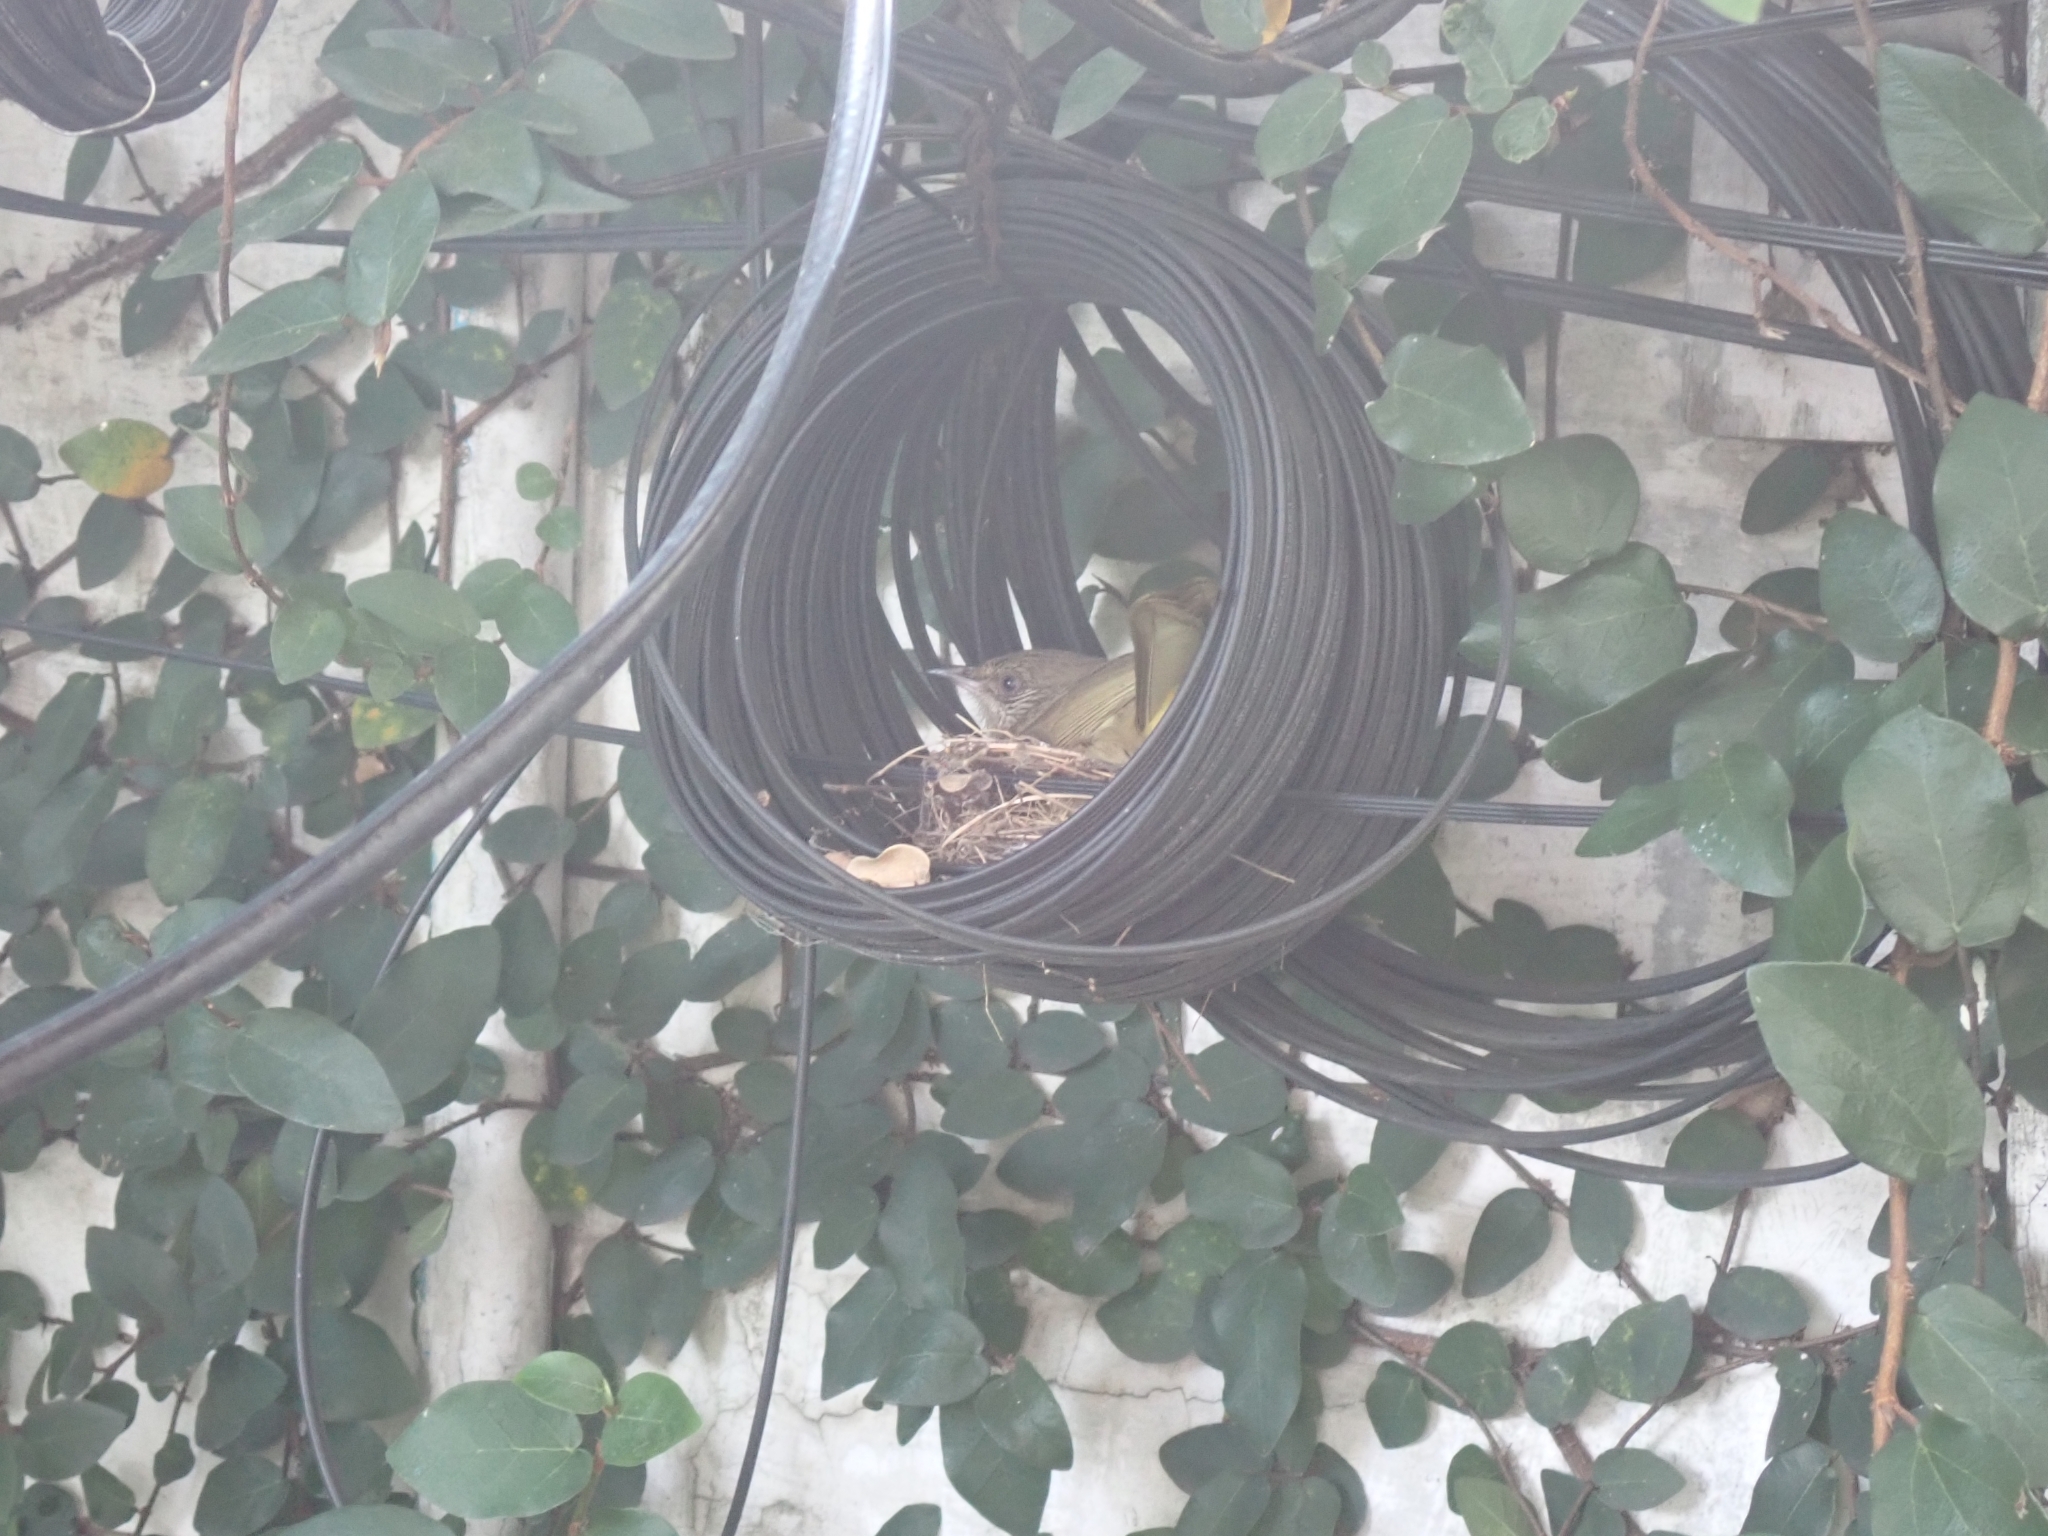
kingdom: Animalia
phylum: Chordata
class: Aves
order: Passeriformes
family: Pycnonotidae
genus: Pycnonotus
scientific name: Pycnonotus blanfordi
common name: Streak-eared bulbul
